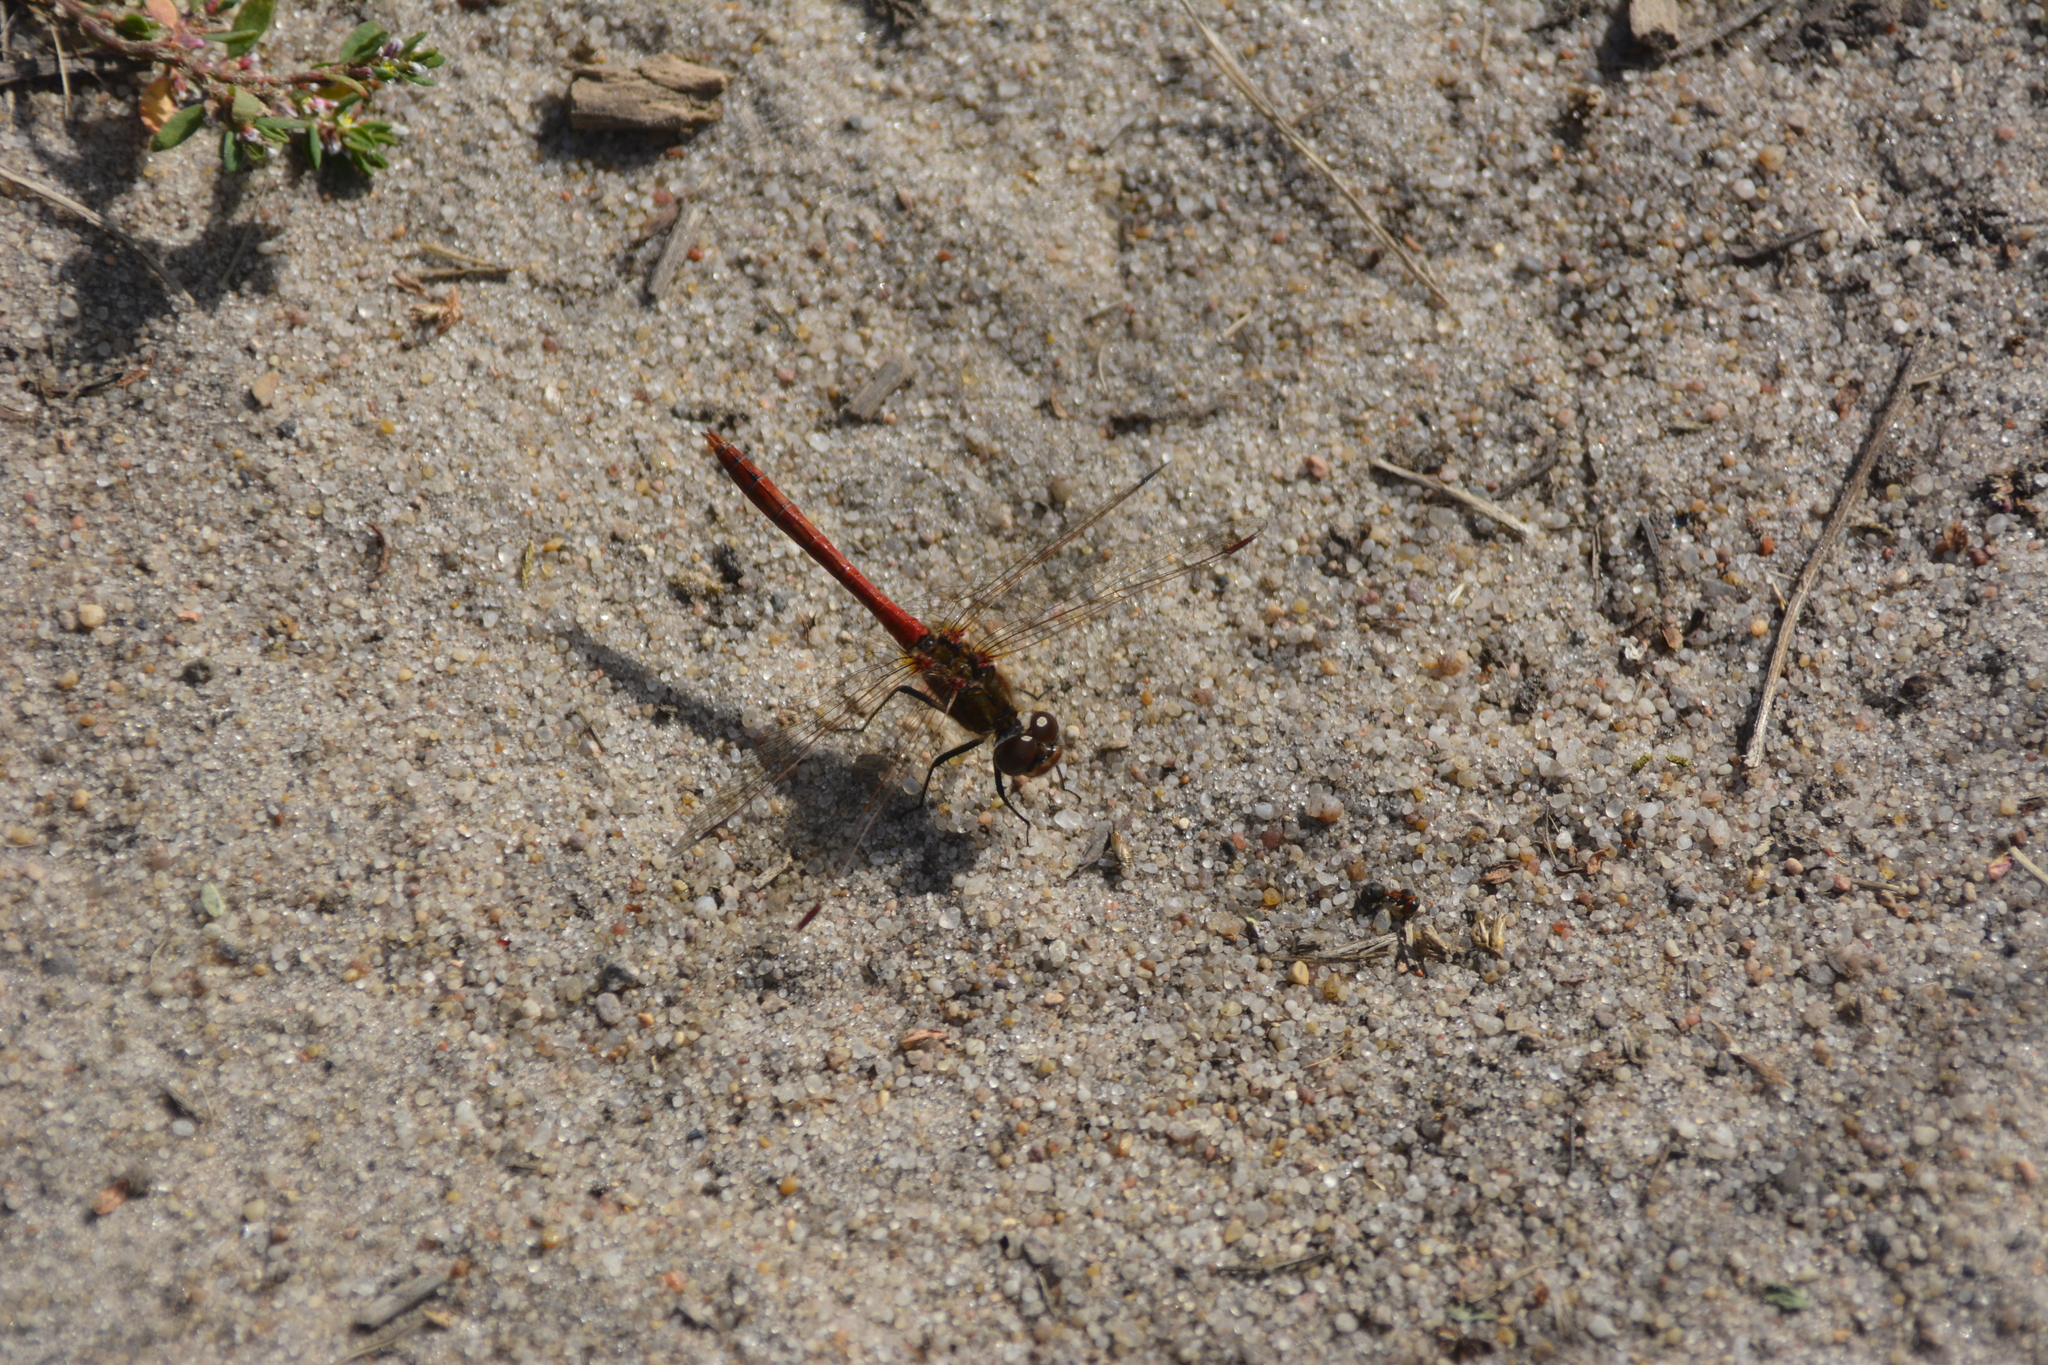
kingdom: Animalia
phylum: Arthropoda
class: Insecta
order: Odonata
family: Libellulidae
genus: Sympetrum
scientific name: Sympetrum vulgatum
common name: Vagrant darter
